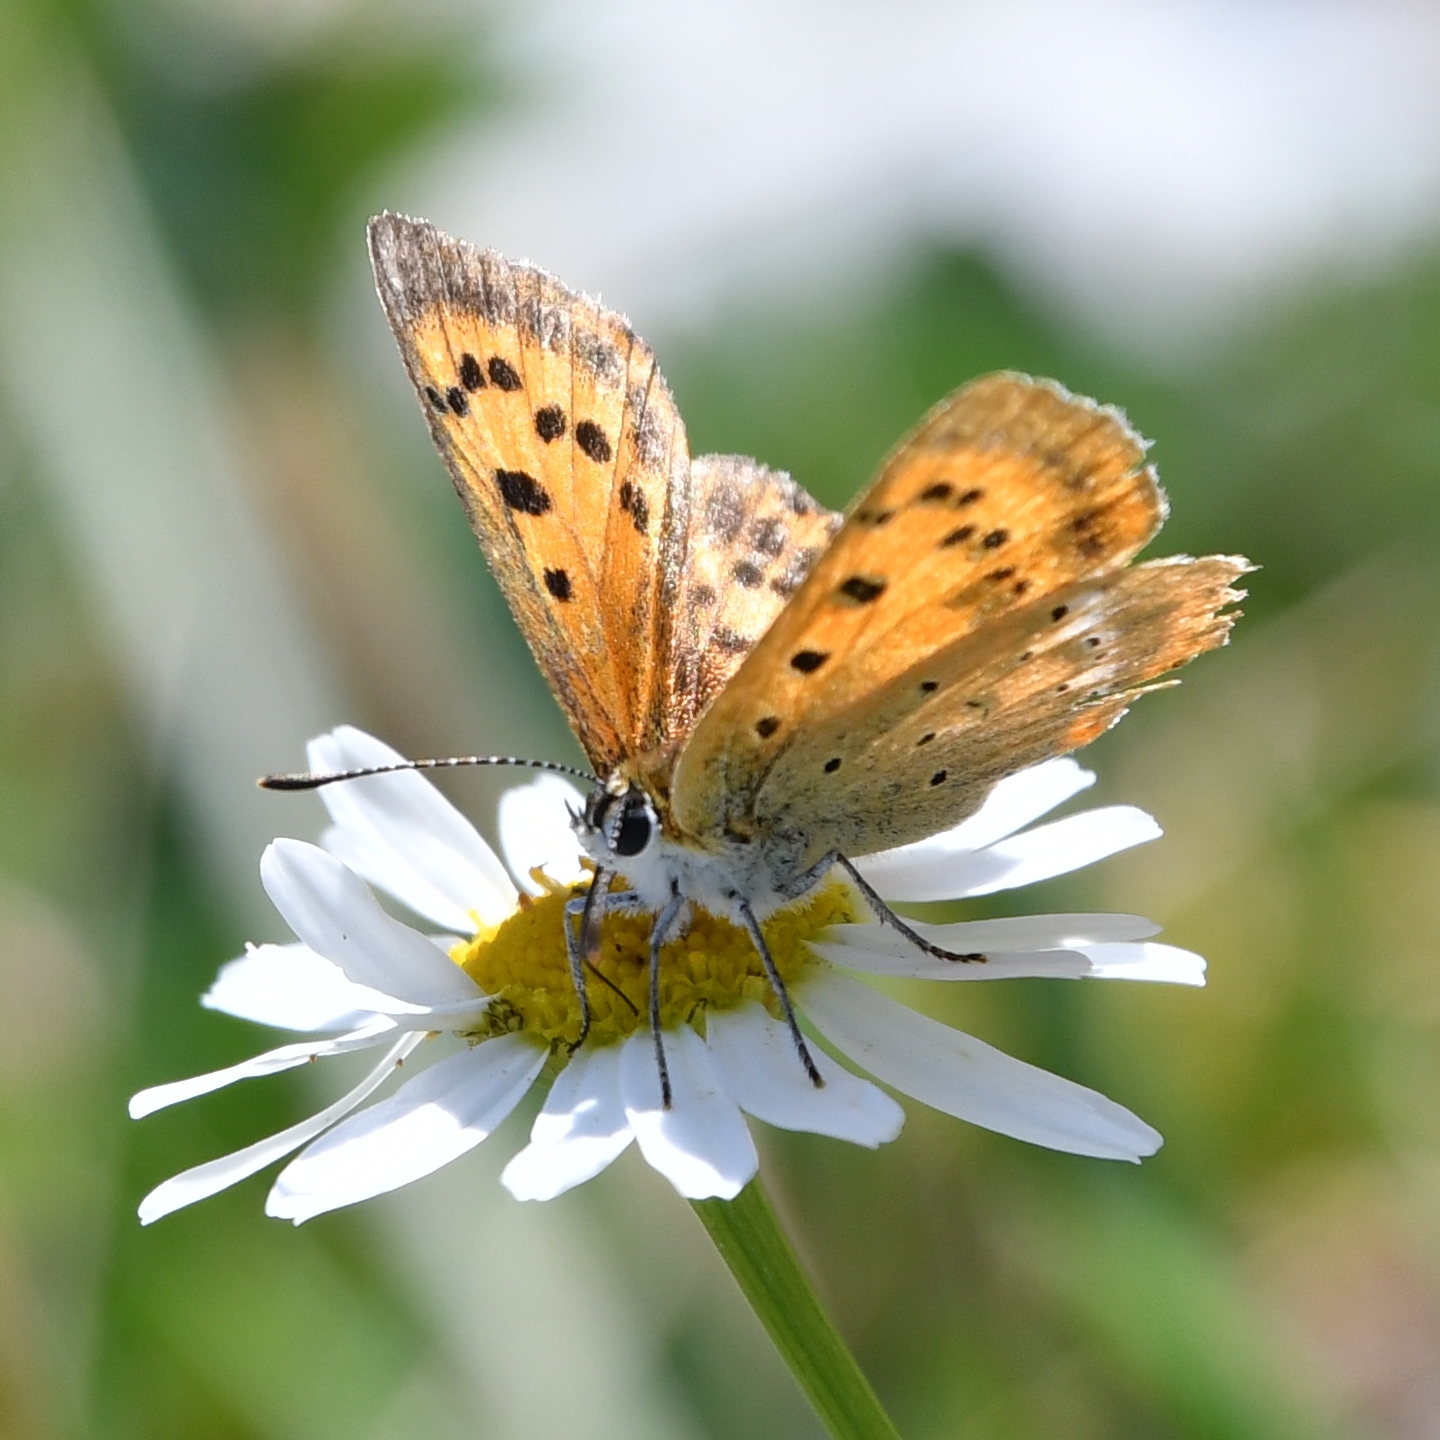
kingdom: Animalia
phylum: Arthropoda
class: Insecta
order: Lepidoptera
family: Lycaenidae
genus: Lycaena
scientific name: Lycaena virgaureae
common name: Scarce copper
